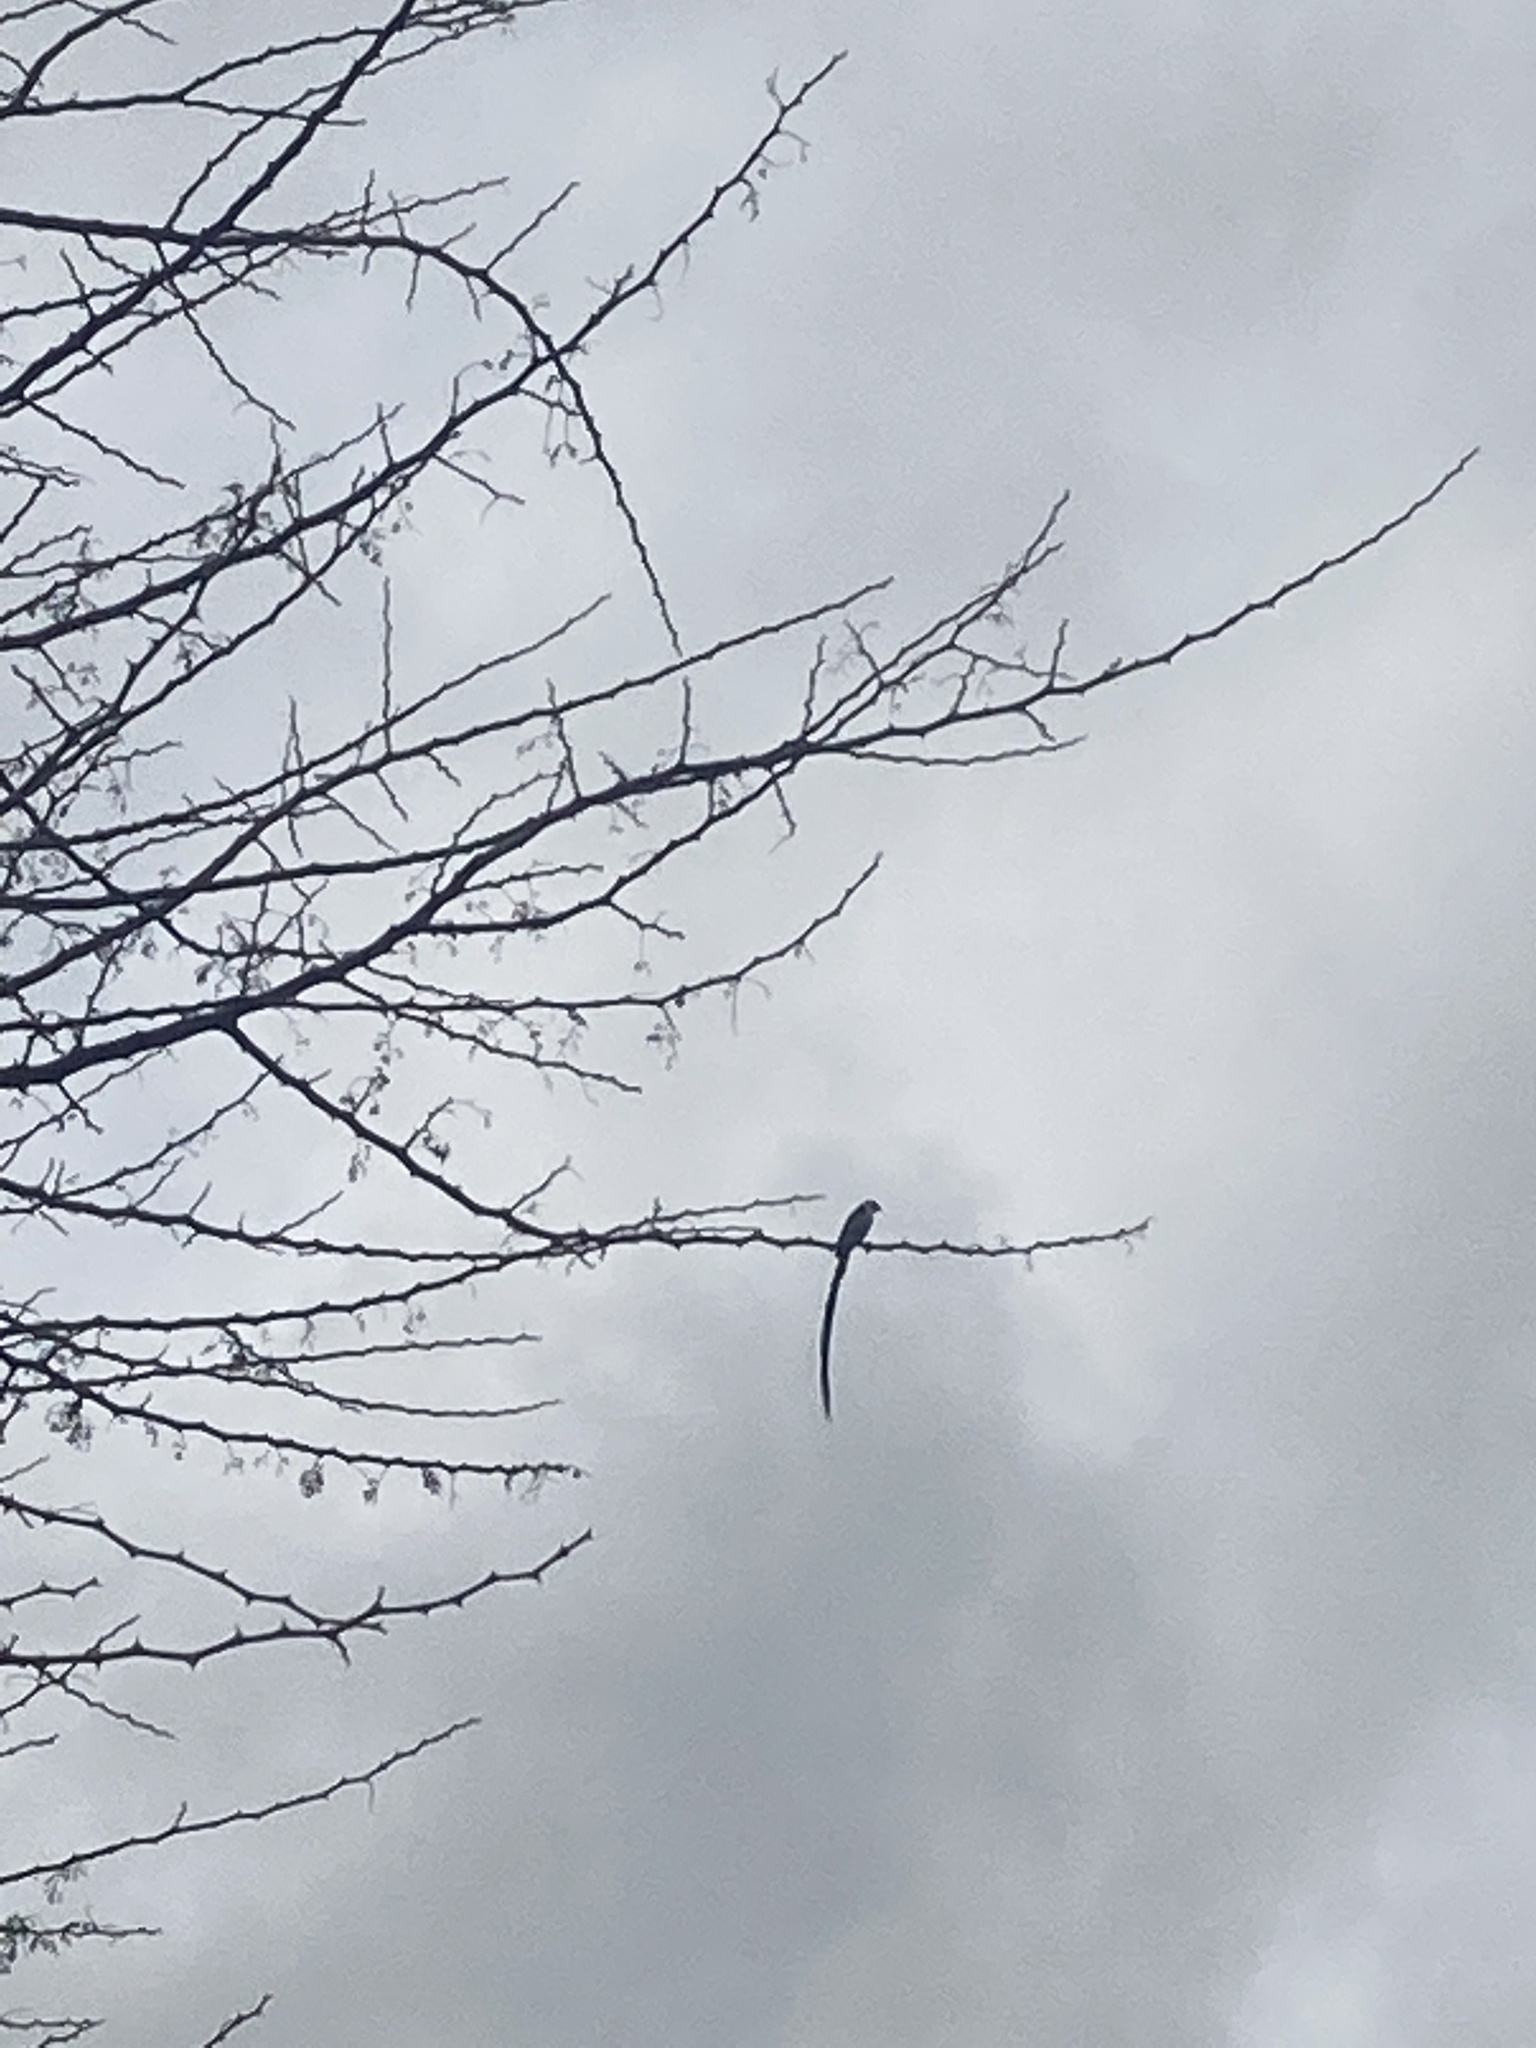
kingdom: Animalia
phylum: Chordata
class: Aves
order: Passeriformes
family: Viduidae
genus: Vidua
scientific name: Vidua macroura
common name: Pin-tailed whydah
